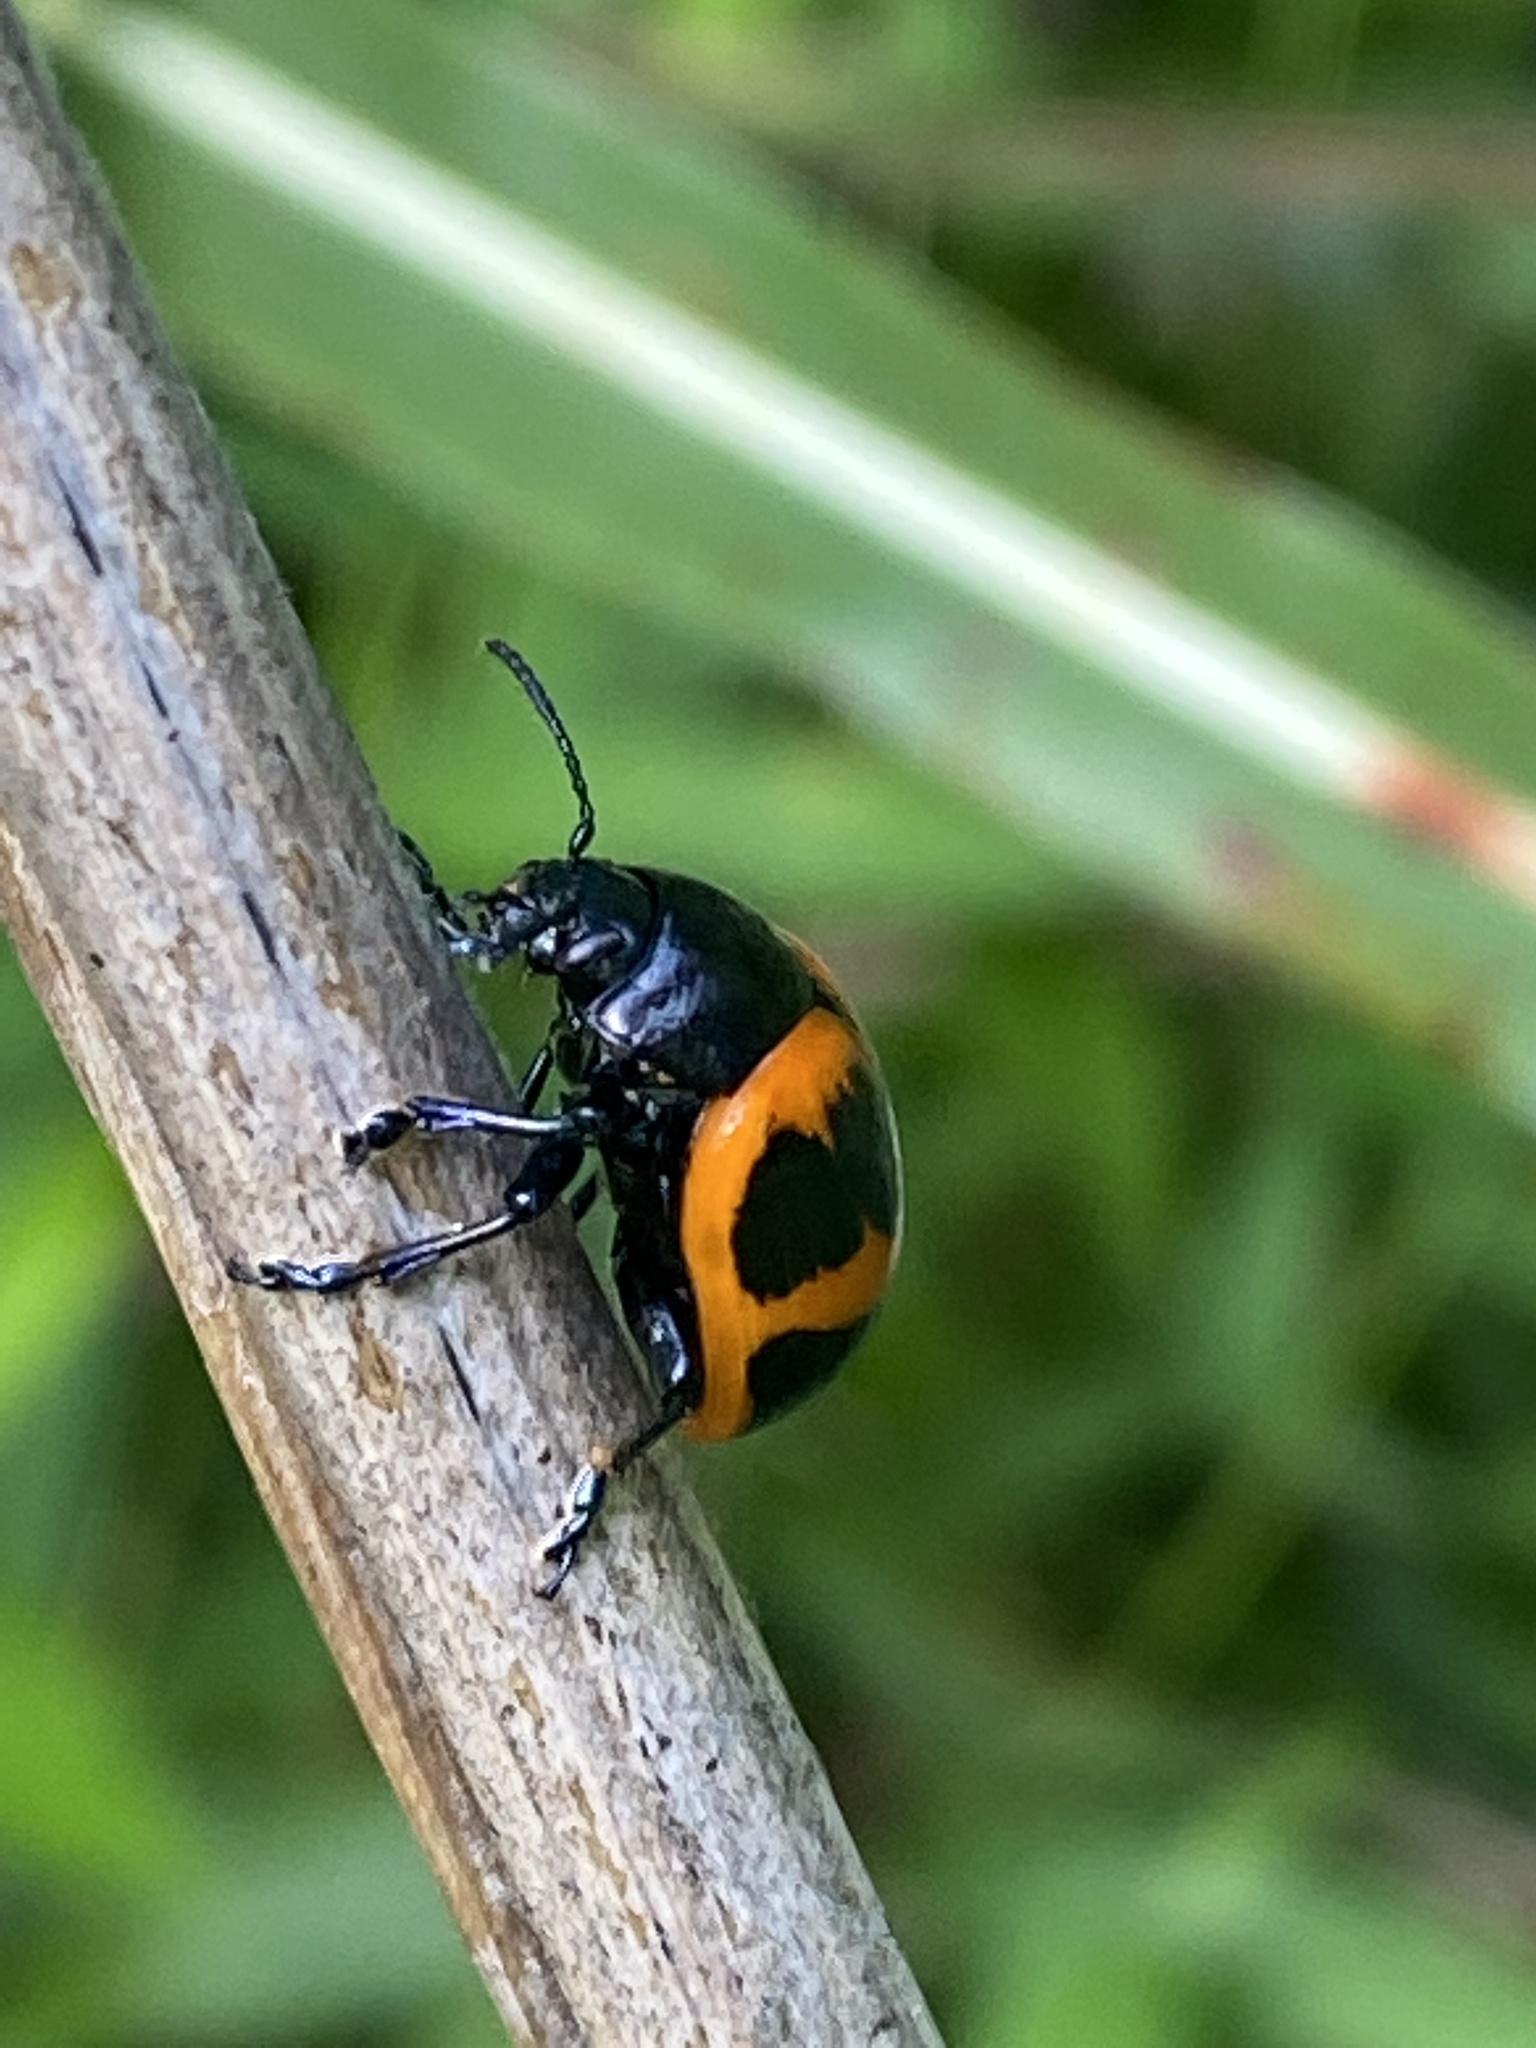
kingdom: Animalia
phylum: Arthropoda
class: Insecta
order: Coleoptera
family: Chrysomelidae
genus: Labidomera
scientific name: Labidomera clivicollis
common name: Swamp milkweed leaf beetle
